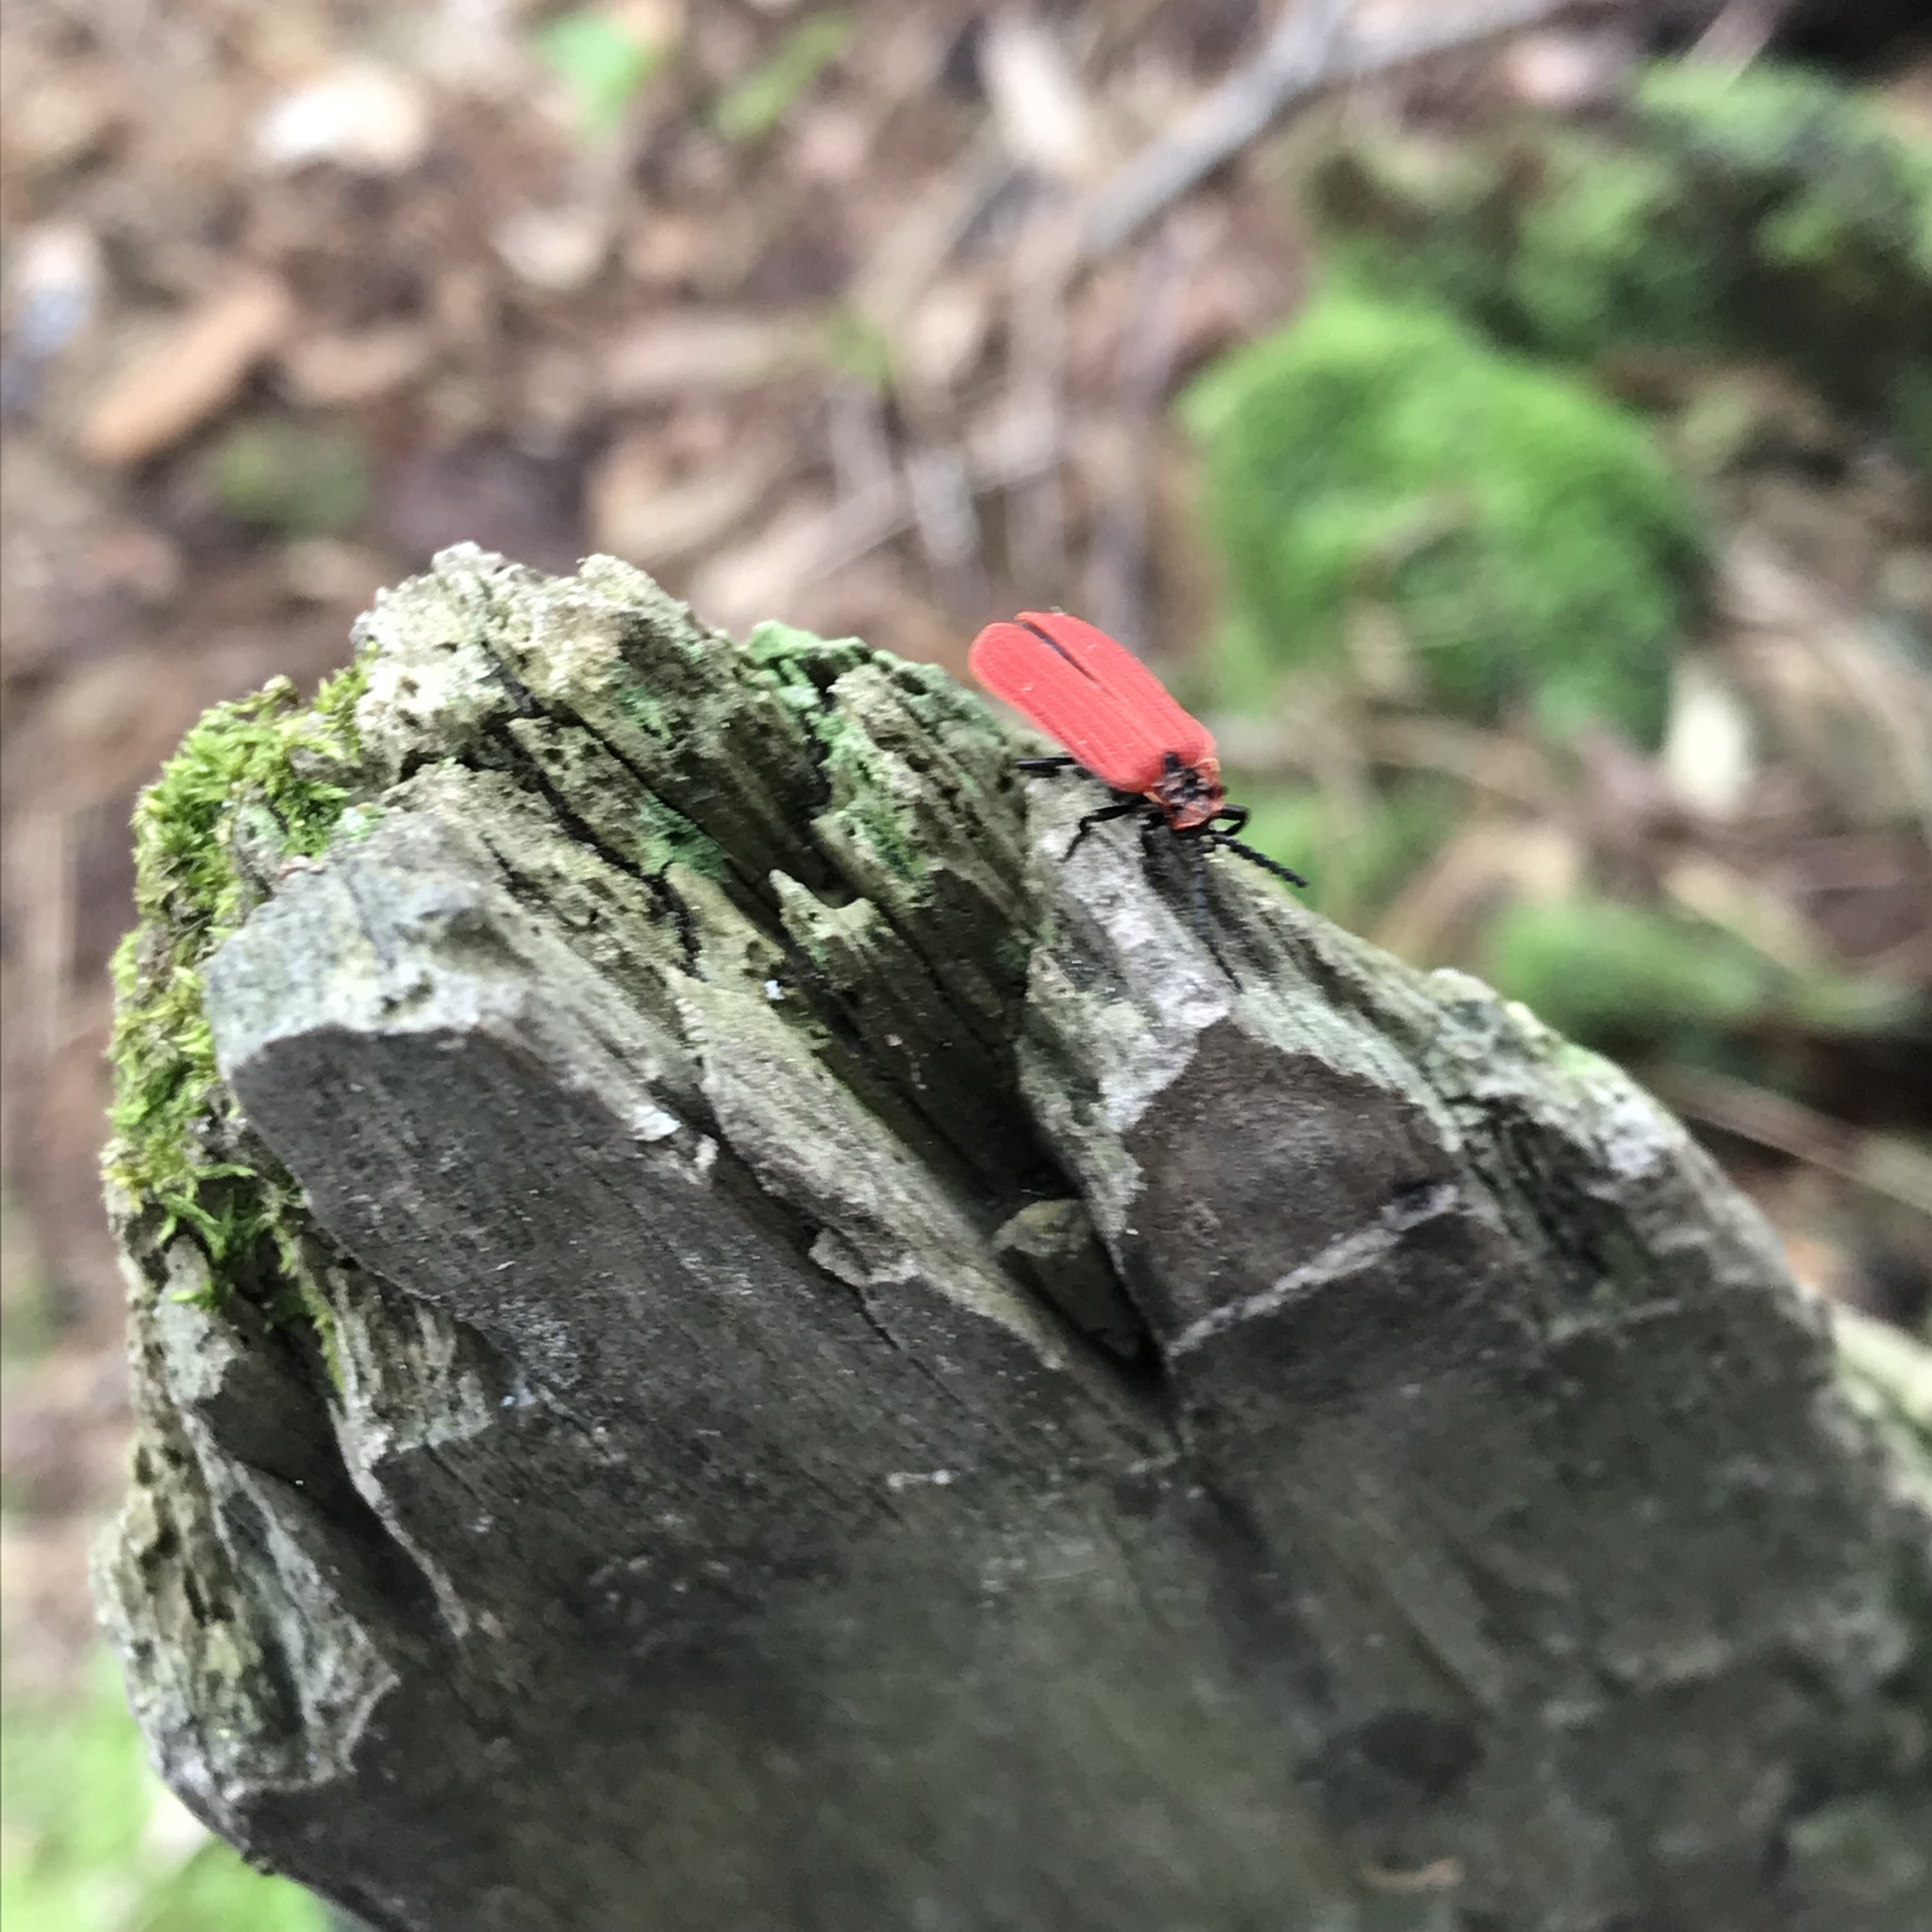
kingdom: Animalia
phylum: Arthropoda
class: Insecta
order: Coleoptera
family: Lycidae
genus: Dictyoptera
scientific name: Dictyoptera aurora
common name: Golden net-winged beetle
